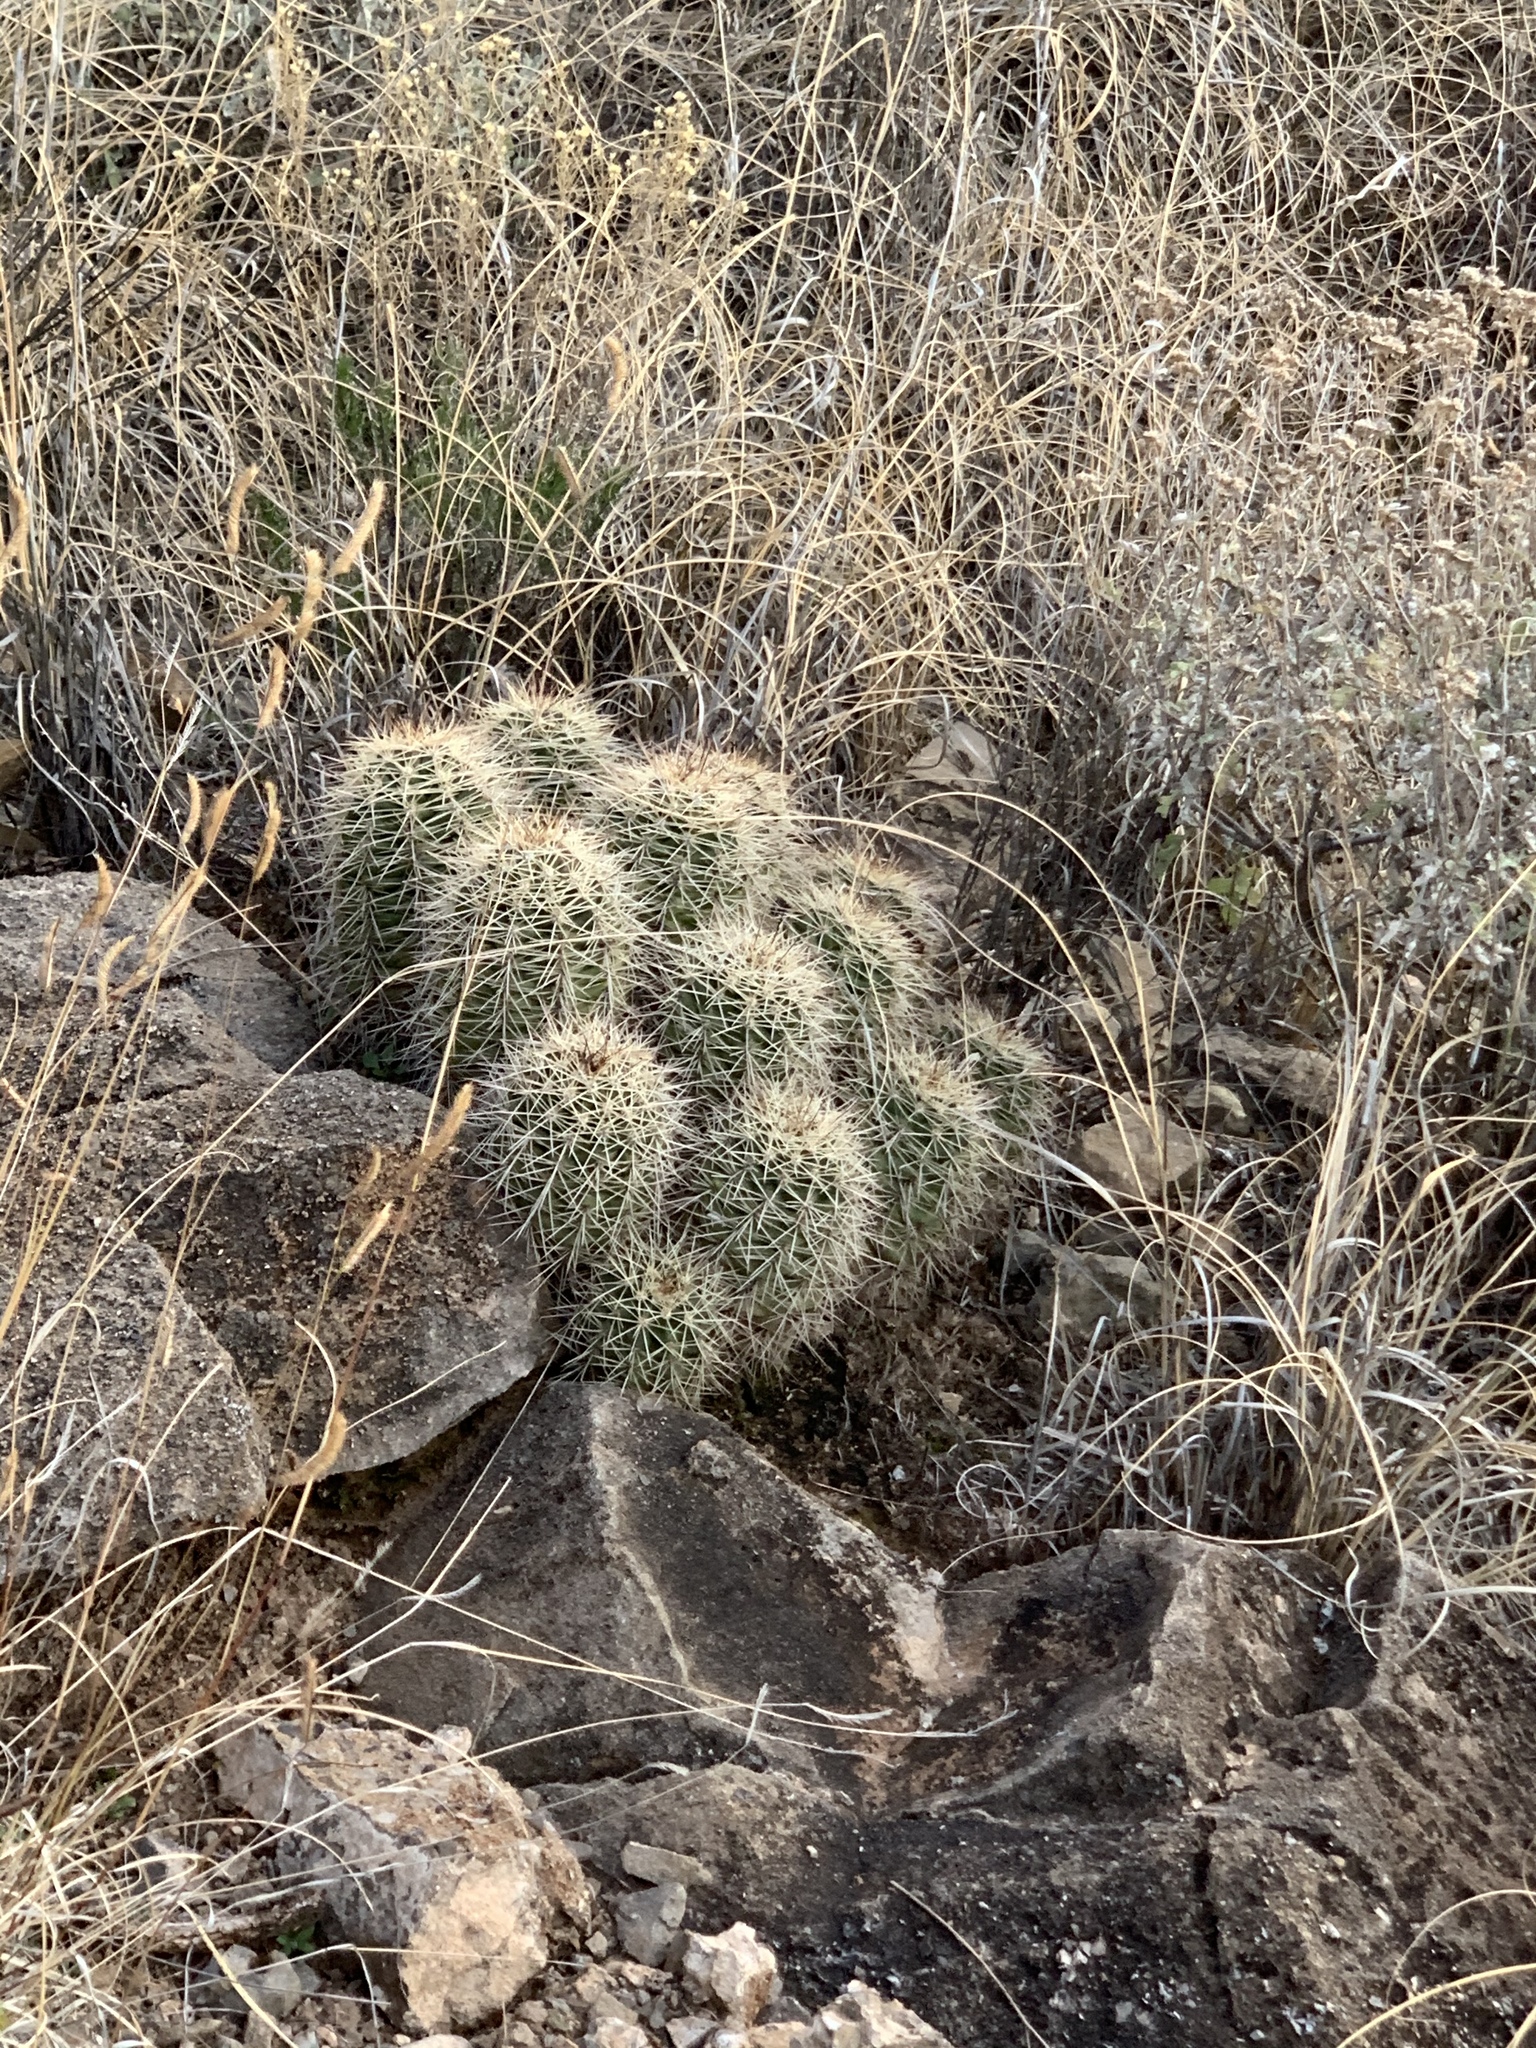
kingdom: Plantae
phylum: Tracheophyta
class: Magnoliopsida
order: Caryophyllales
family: Cactaceae
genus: Echinocereus
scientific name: Echinocereus coccineus
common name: Scarlet hedgehog cactus
